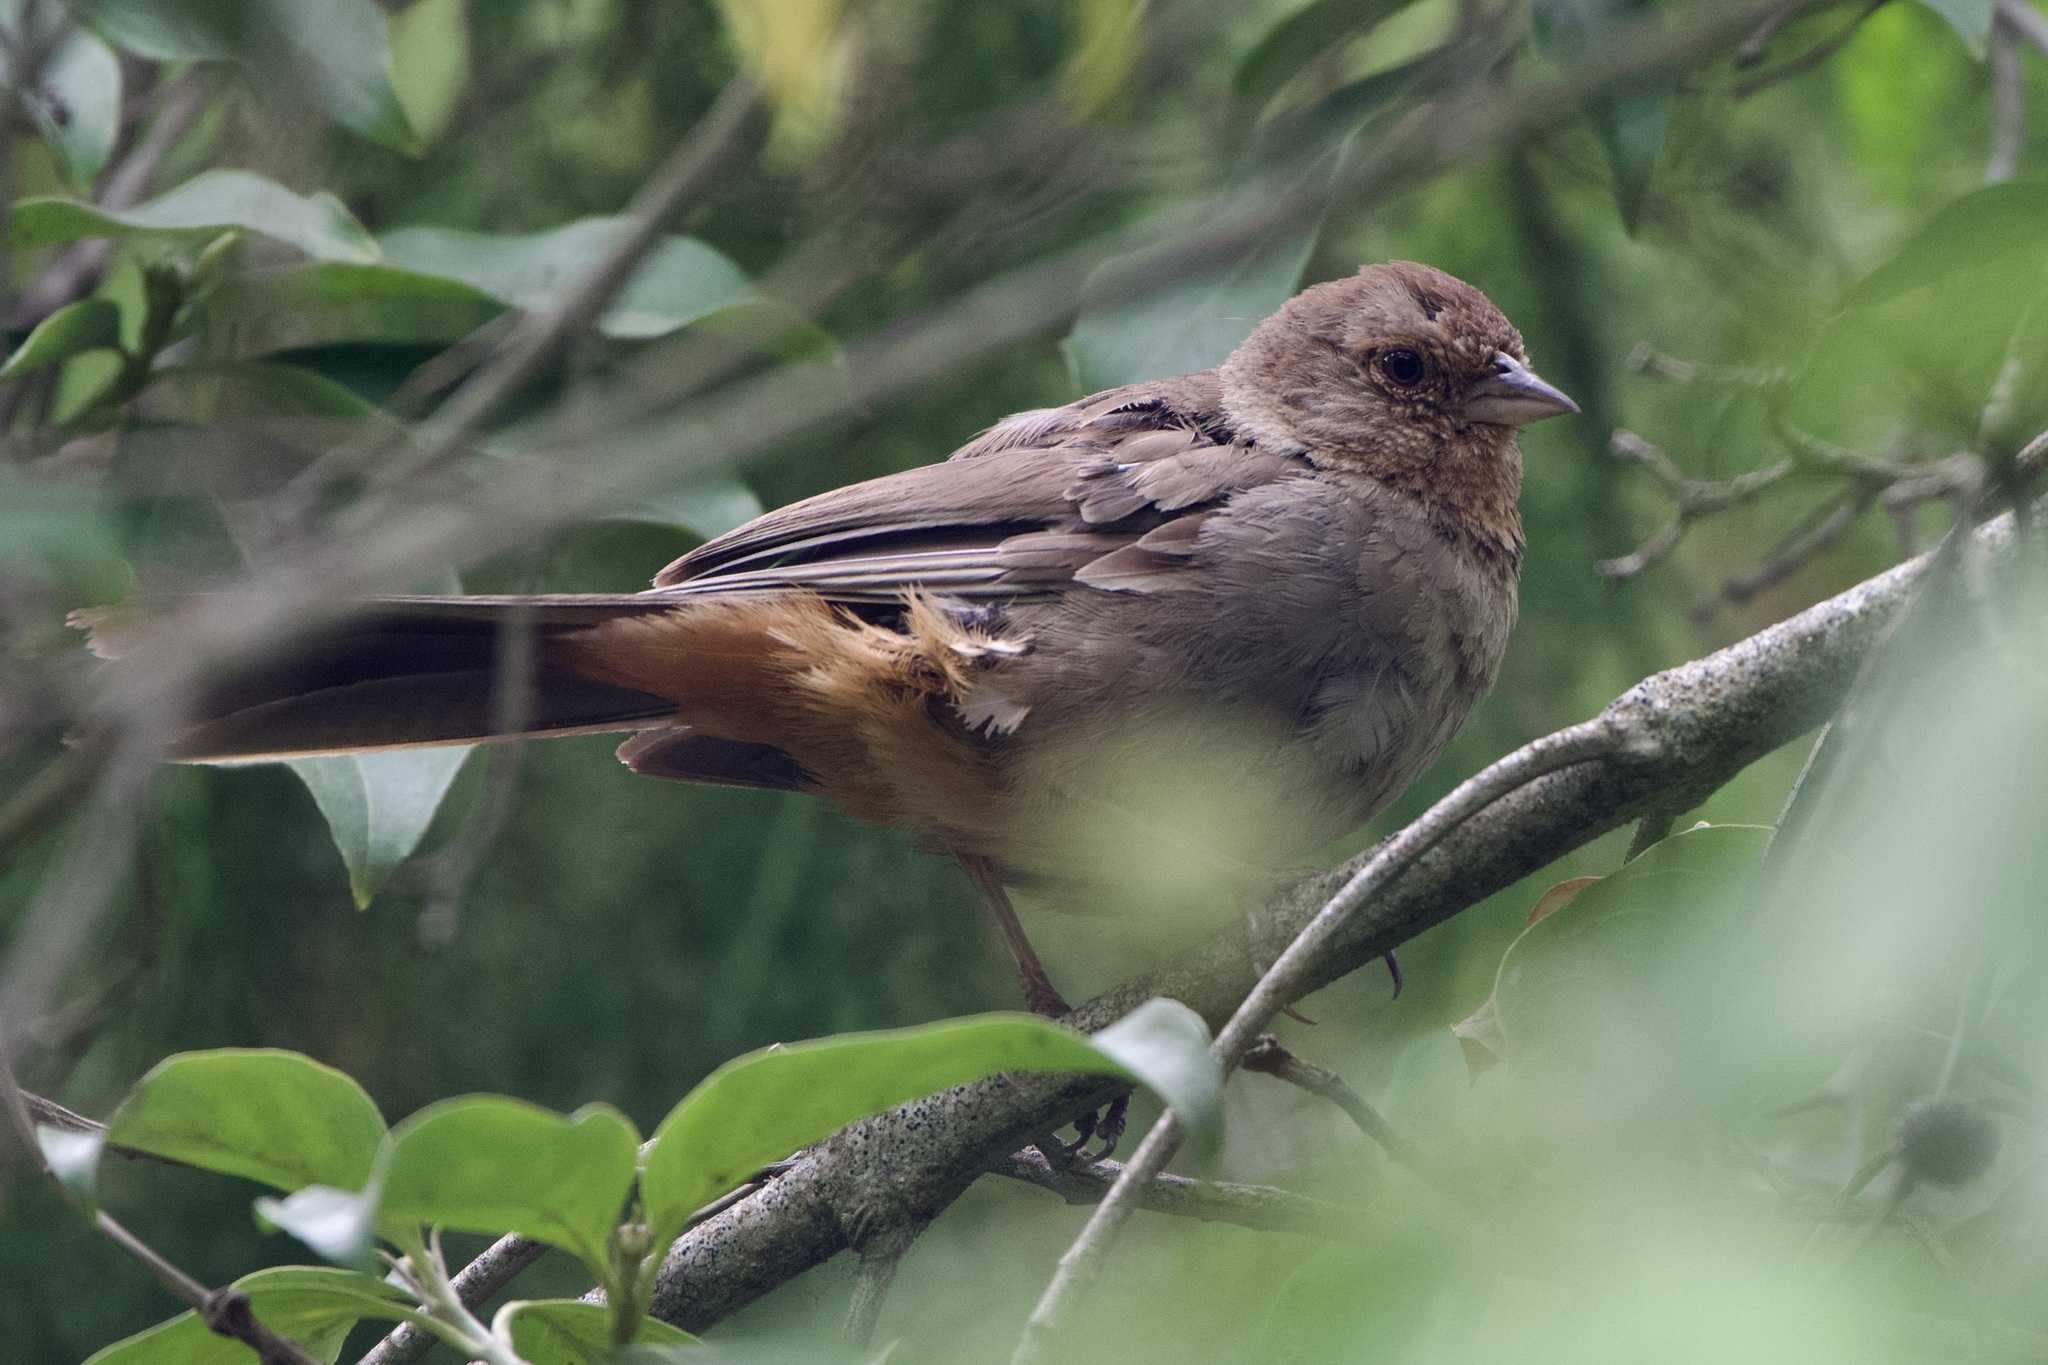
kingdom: Animalia
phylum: Chordata
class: Aves
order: Passeriformes
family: Passerellidae
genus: Melozone
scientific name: Melozone crissalis
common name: California towhee
